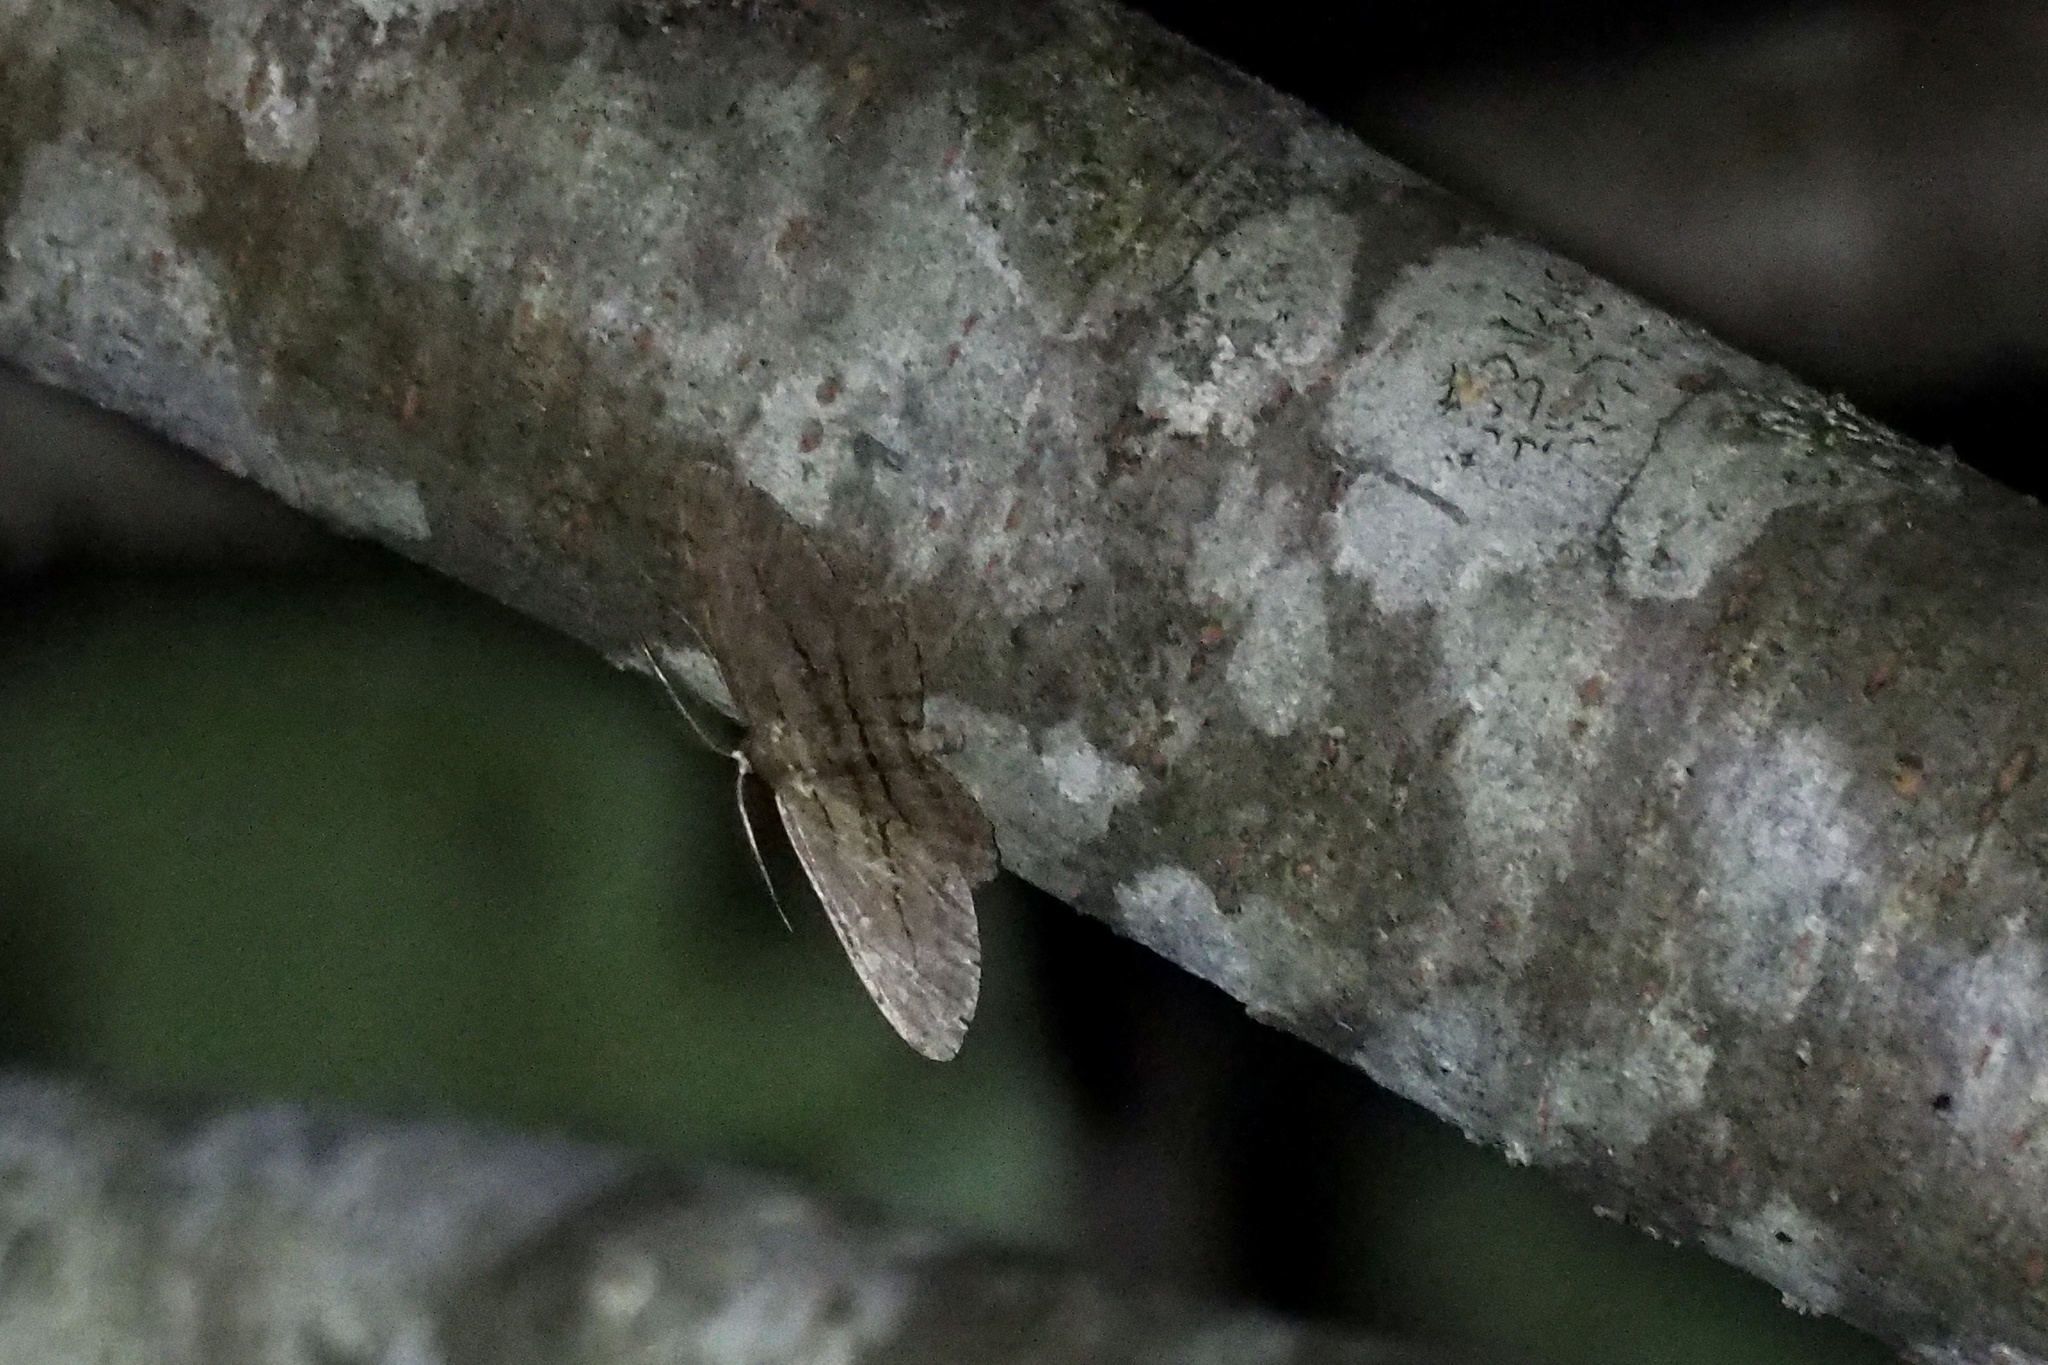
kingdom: Animalia
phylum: Arthropoda
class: Insecta
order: Lepidoptera
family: Geometridae
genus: Apocleora
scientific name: Apocleora rimosa
